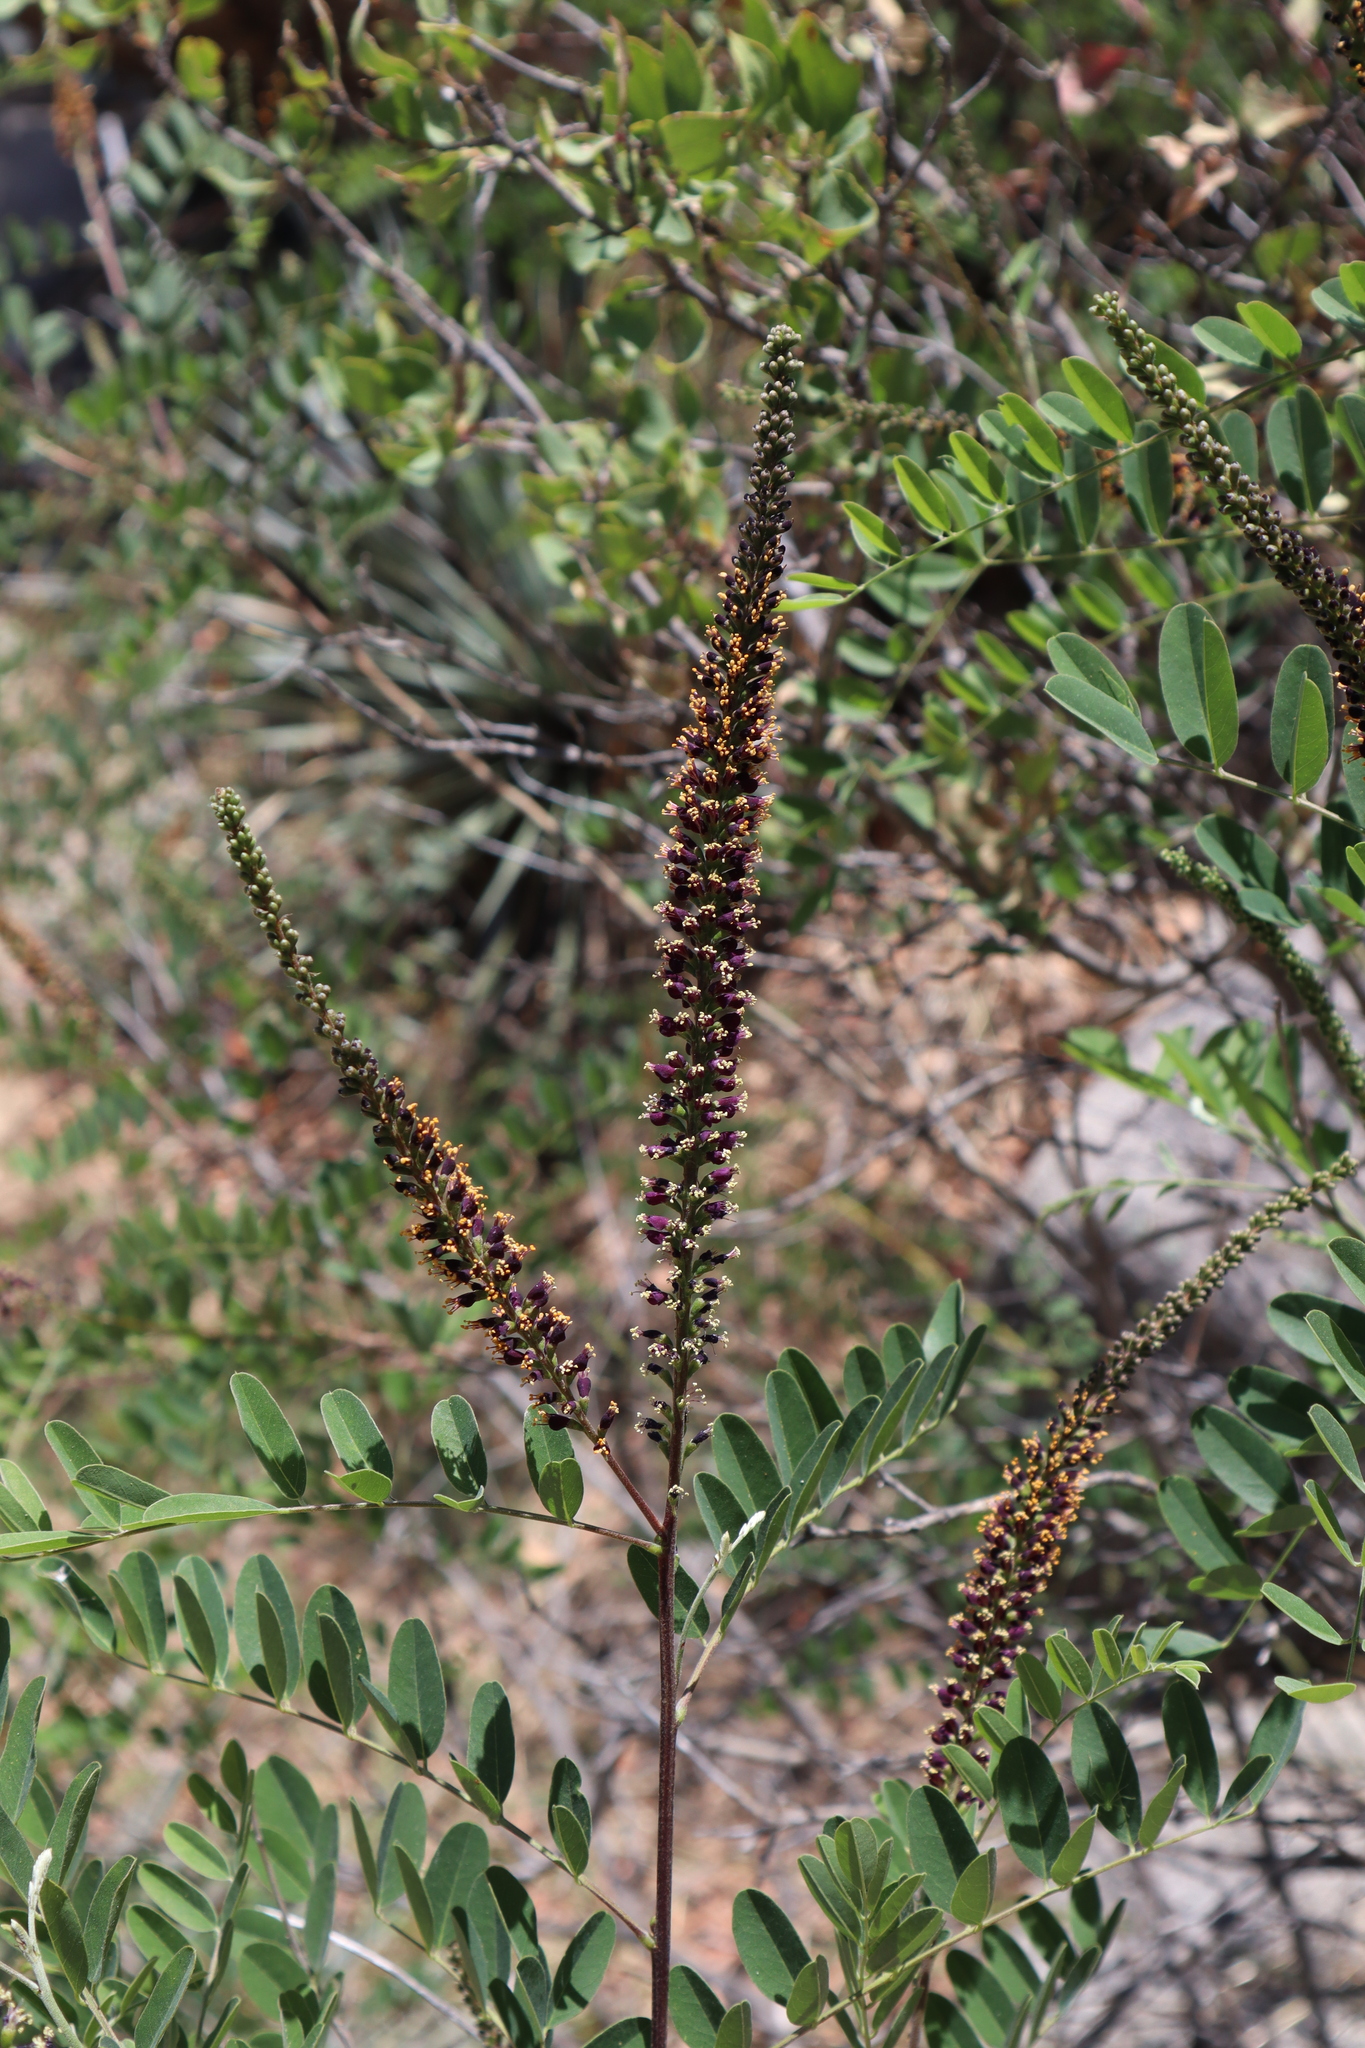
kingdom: Plantae
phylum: Tracheophyta
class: Magnoliopsida
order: Fabales
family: Fabaceae
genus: Amorpha
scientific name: Amorpha fruticosa
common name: False indigo
